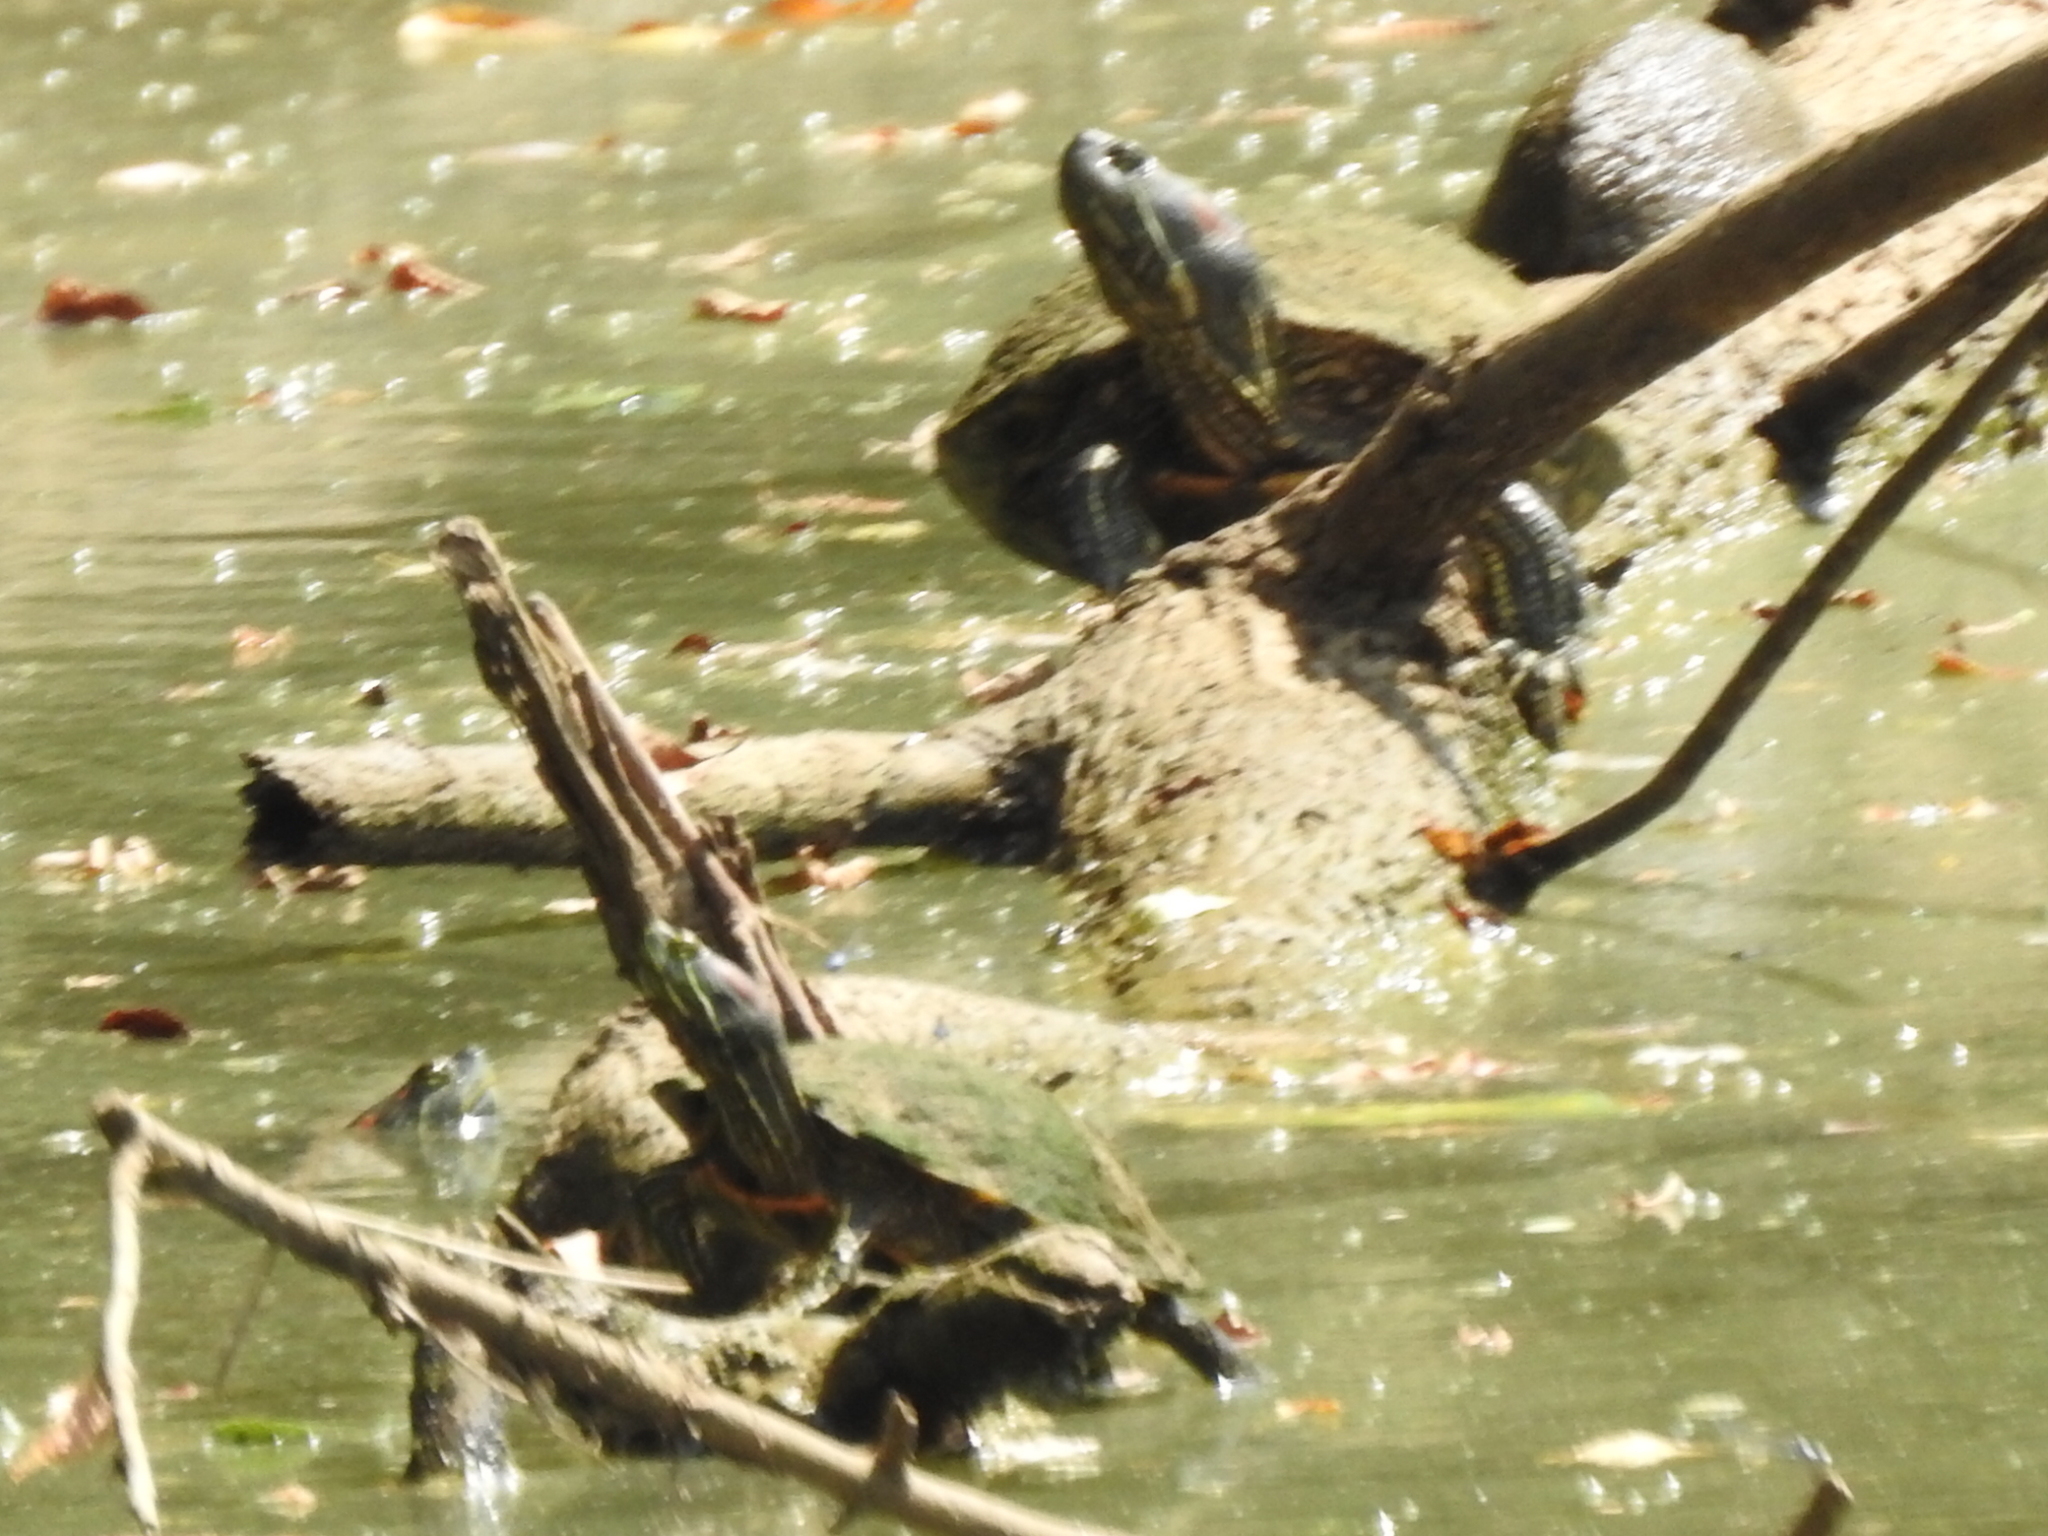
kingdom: Animalia
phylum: Chordata
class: Testudines
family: Emydidae
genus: Trachemys
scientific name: Trachemys scripta
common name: Slider
